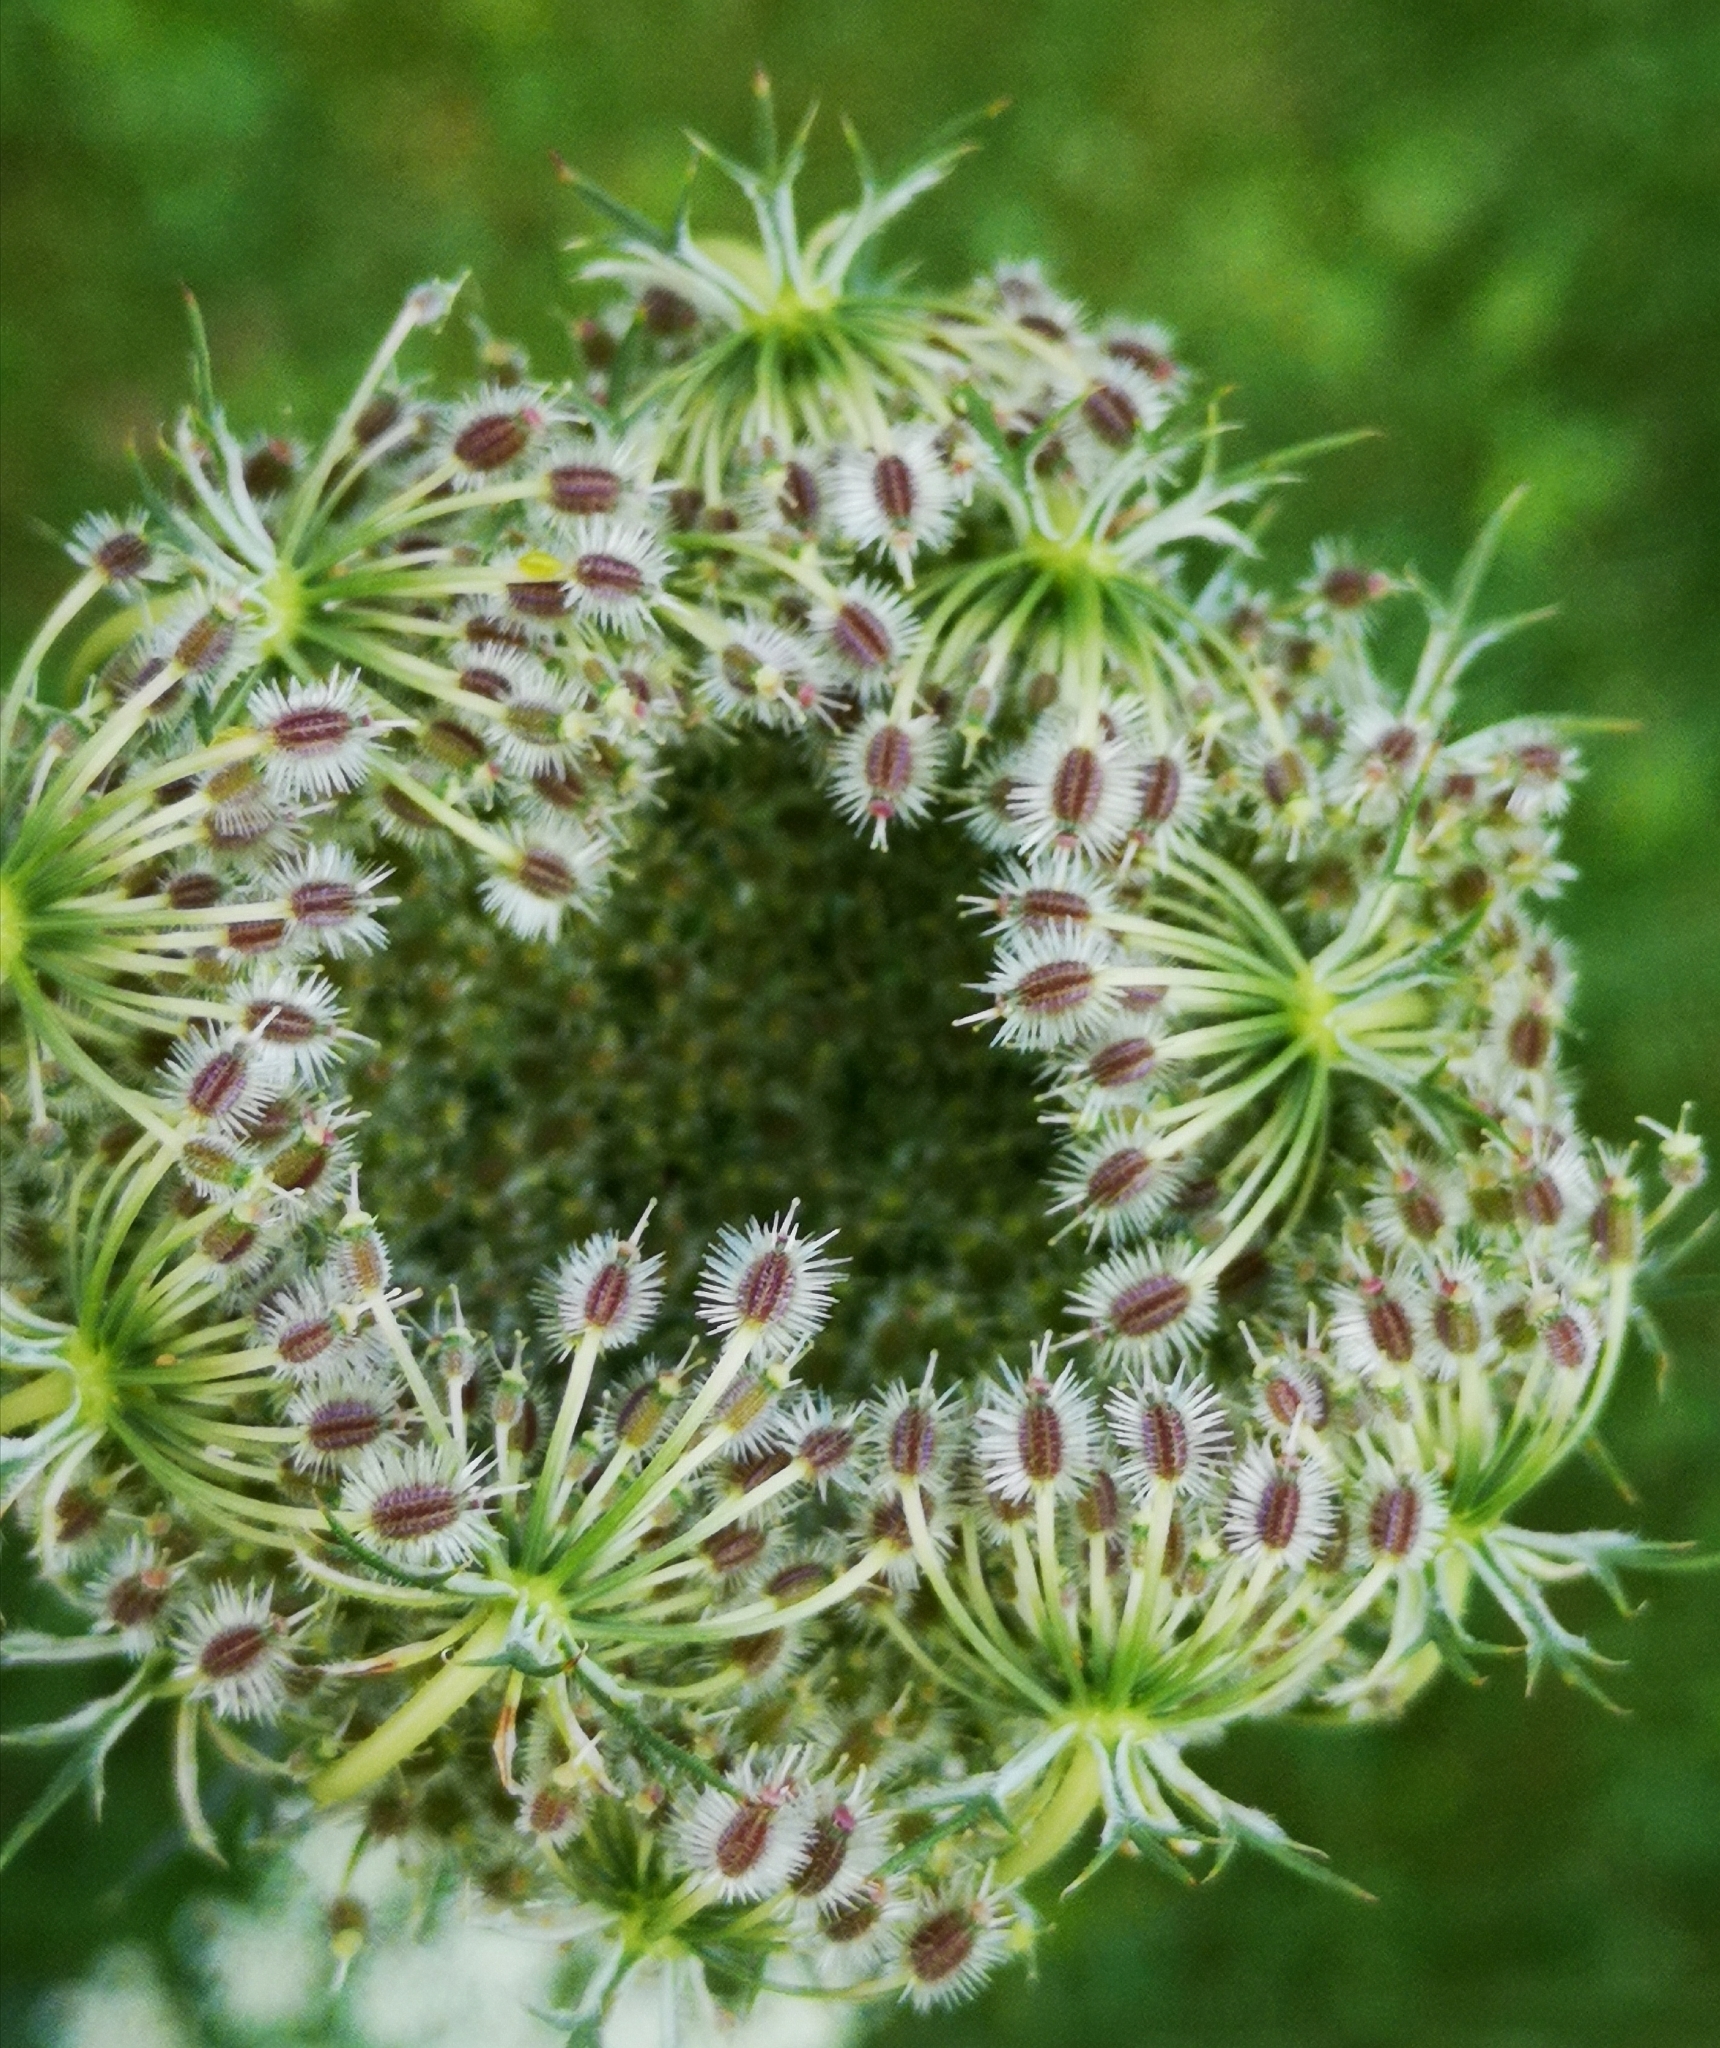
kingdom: Plantae
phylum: Tracheophyta
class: Magnoliopsida
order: Apiales
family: Apiaceae
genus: Daucus
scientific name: Daucus carota
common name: Wild carrot
